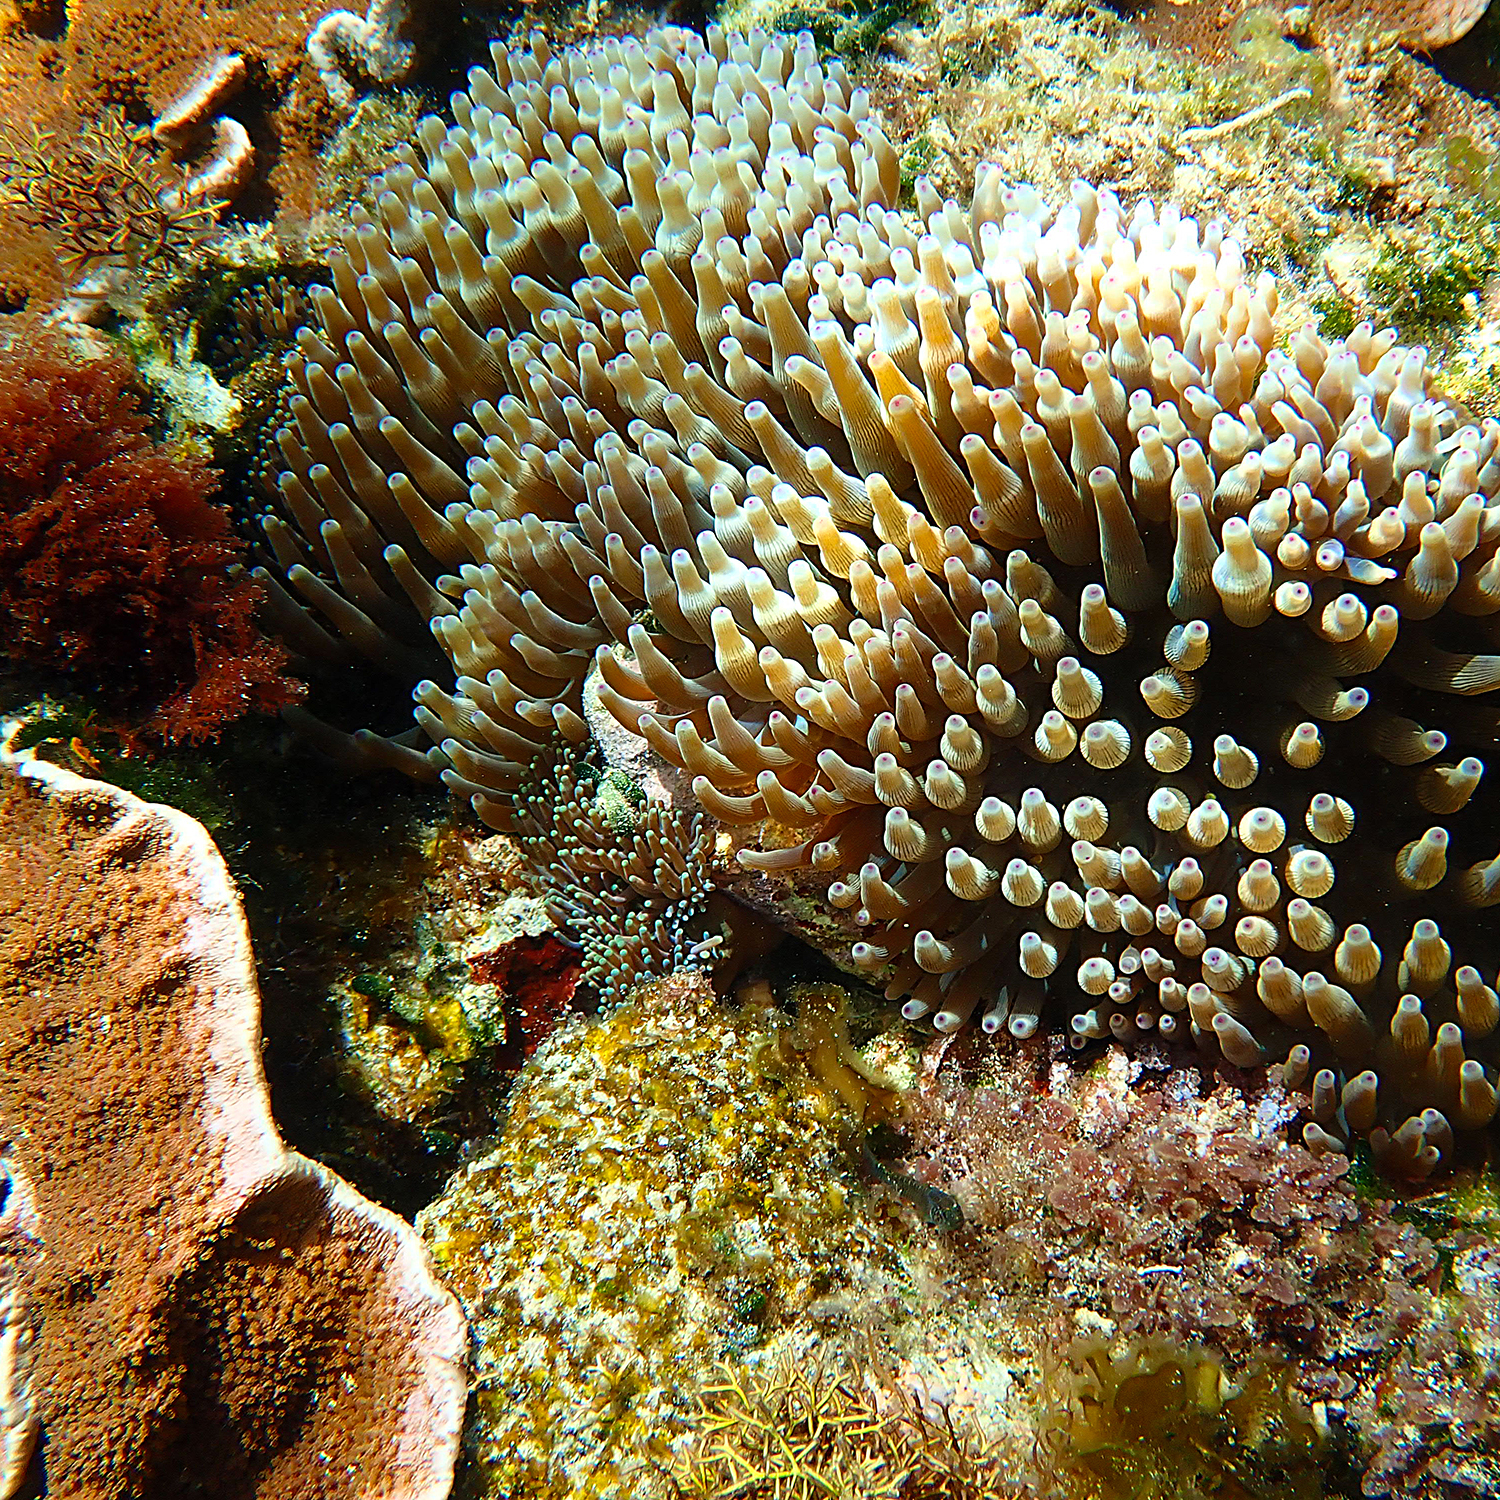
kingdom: Animalia
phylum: Cnidaria
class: Anthozoa
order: Actiniaria
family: Actiniidae
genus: Entacmaea
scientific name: Entacmaea quadricolor
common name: Bulb tentacle sea anemone
